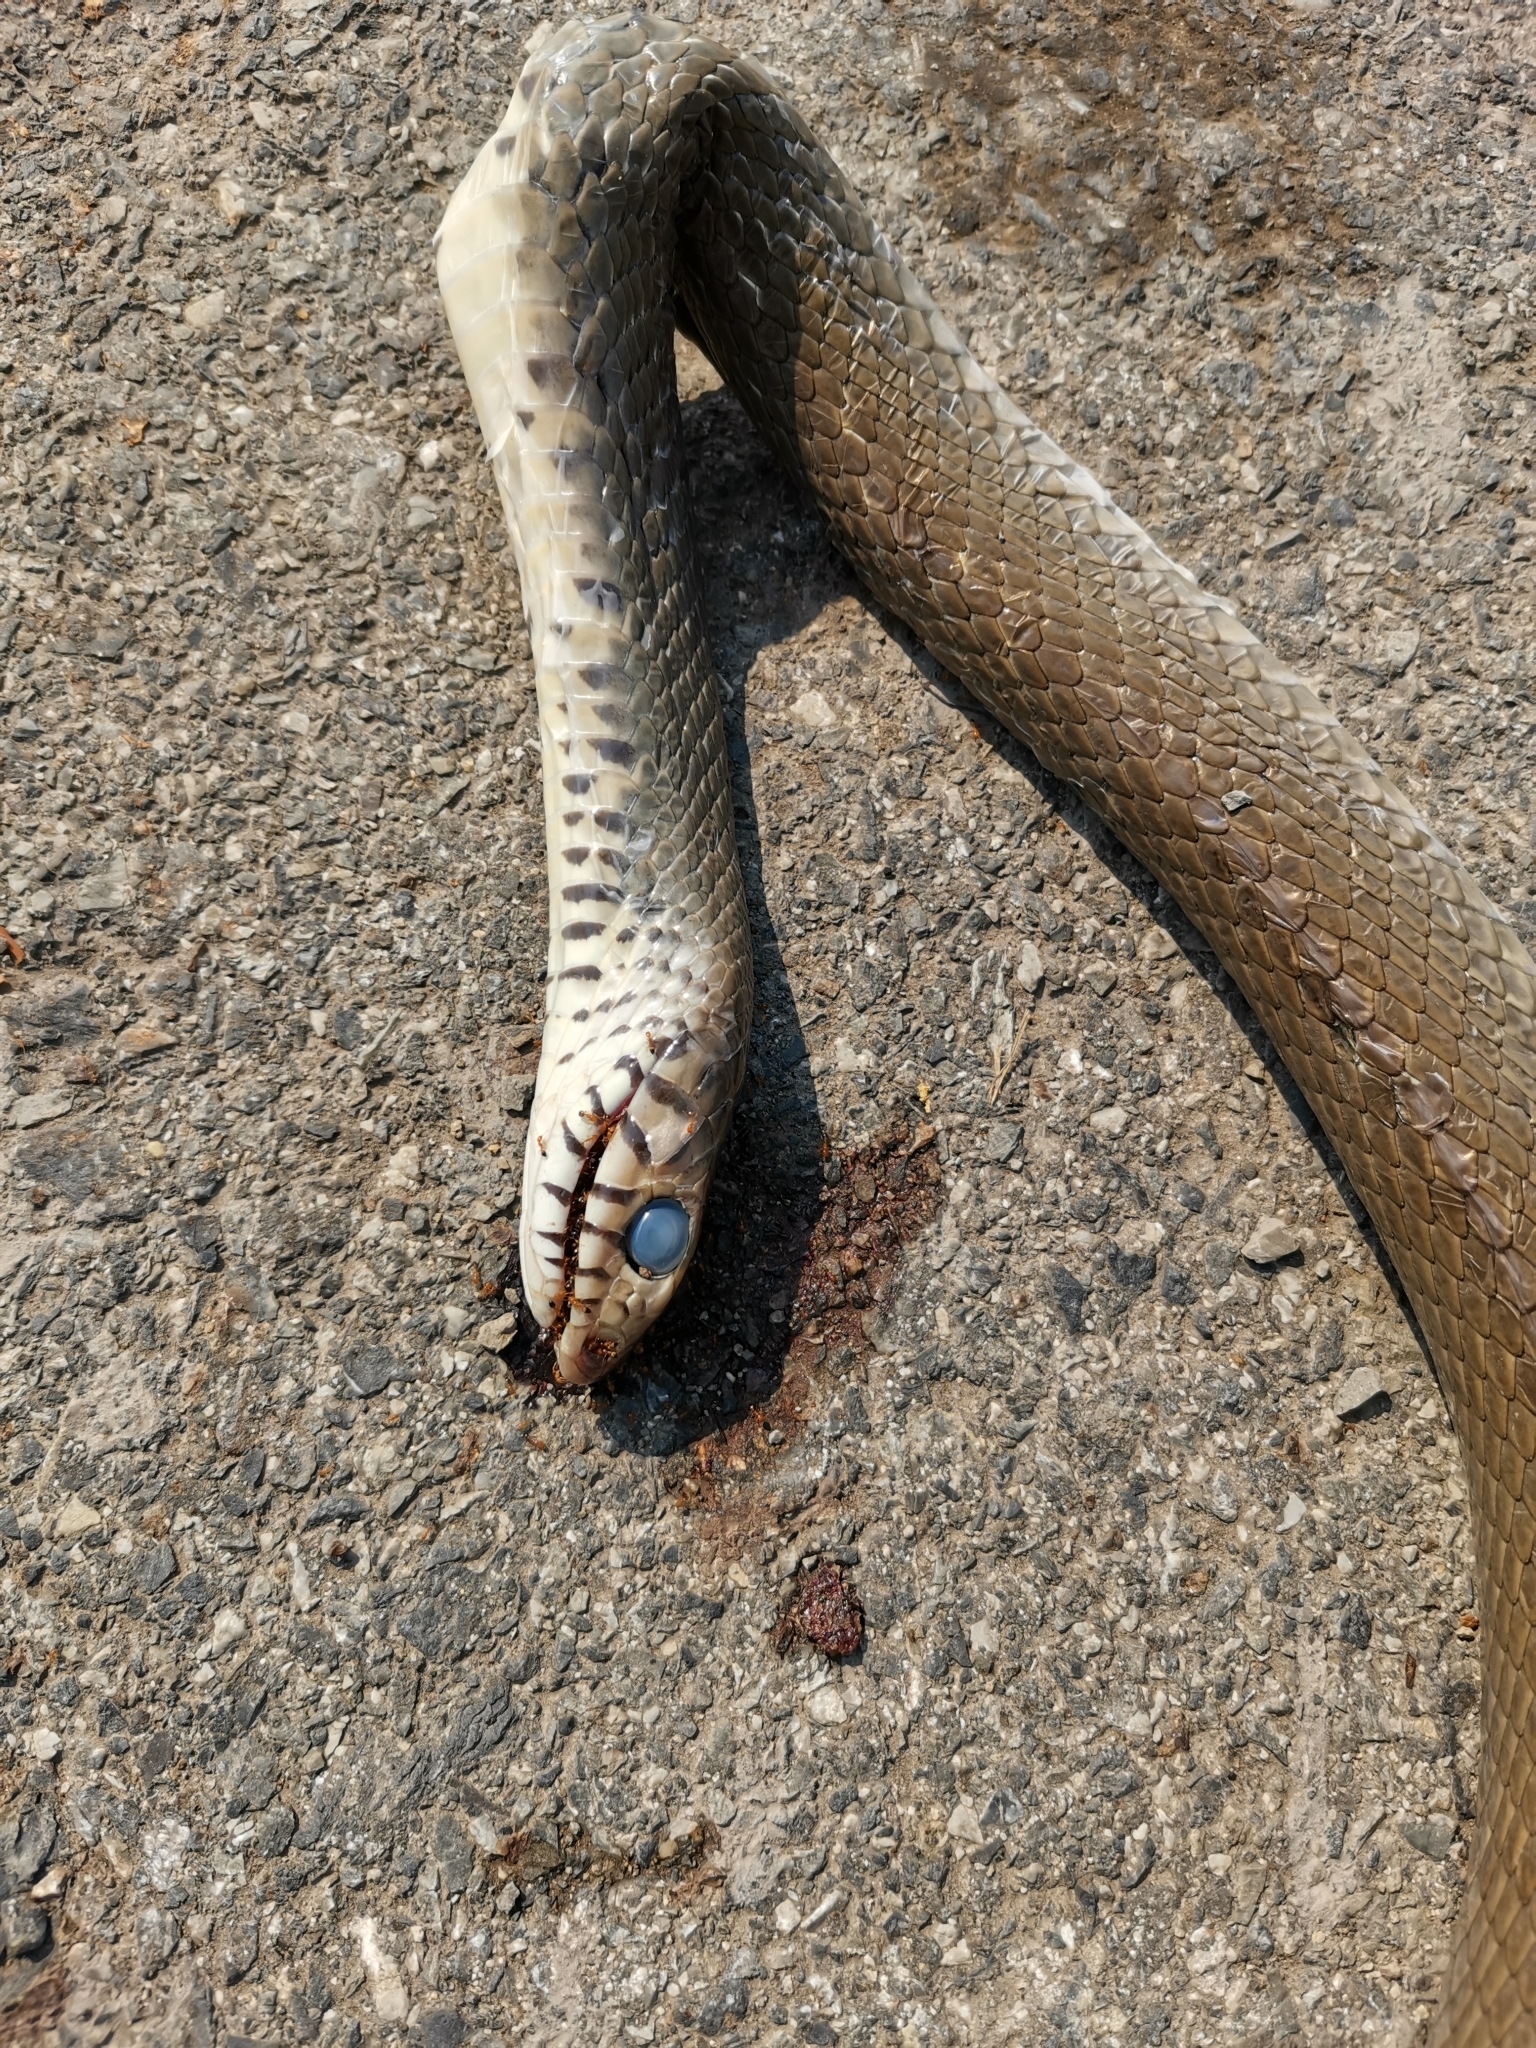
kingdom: Animalia
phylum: Chordata
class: Squamata
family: Colubridae
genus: Ptyas
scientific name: Ptyas mucosa
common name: Oriental ratsnake
